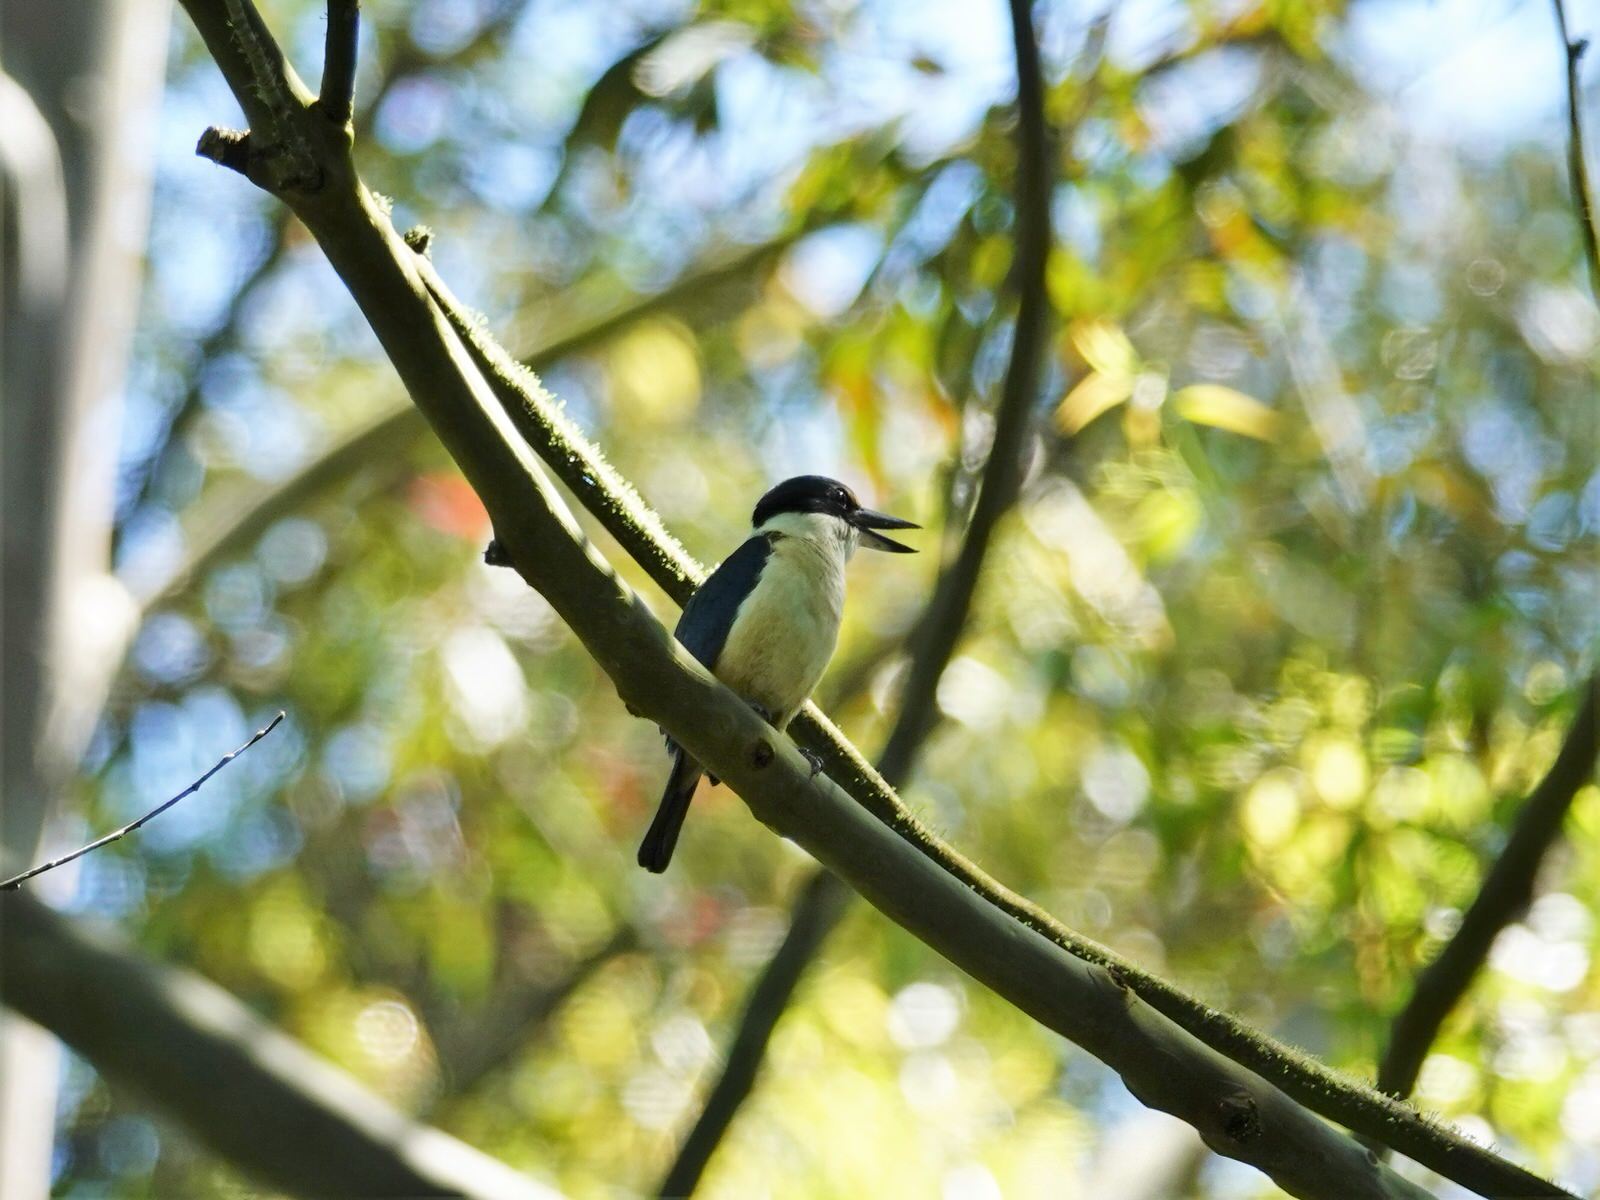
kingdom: Animalia
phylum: Chordata
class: Aves
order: Coraciiformes
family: Alcedinidae
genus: Todiramphus
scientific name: Todiramphus sanctus
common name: Sacred kingfisher
